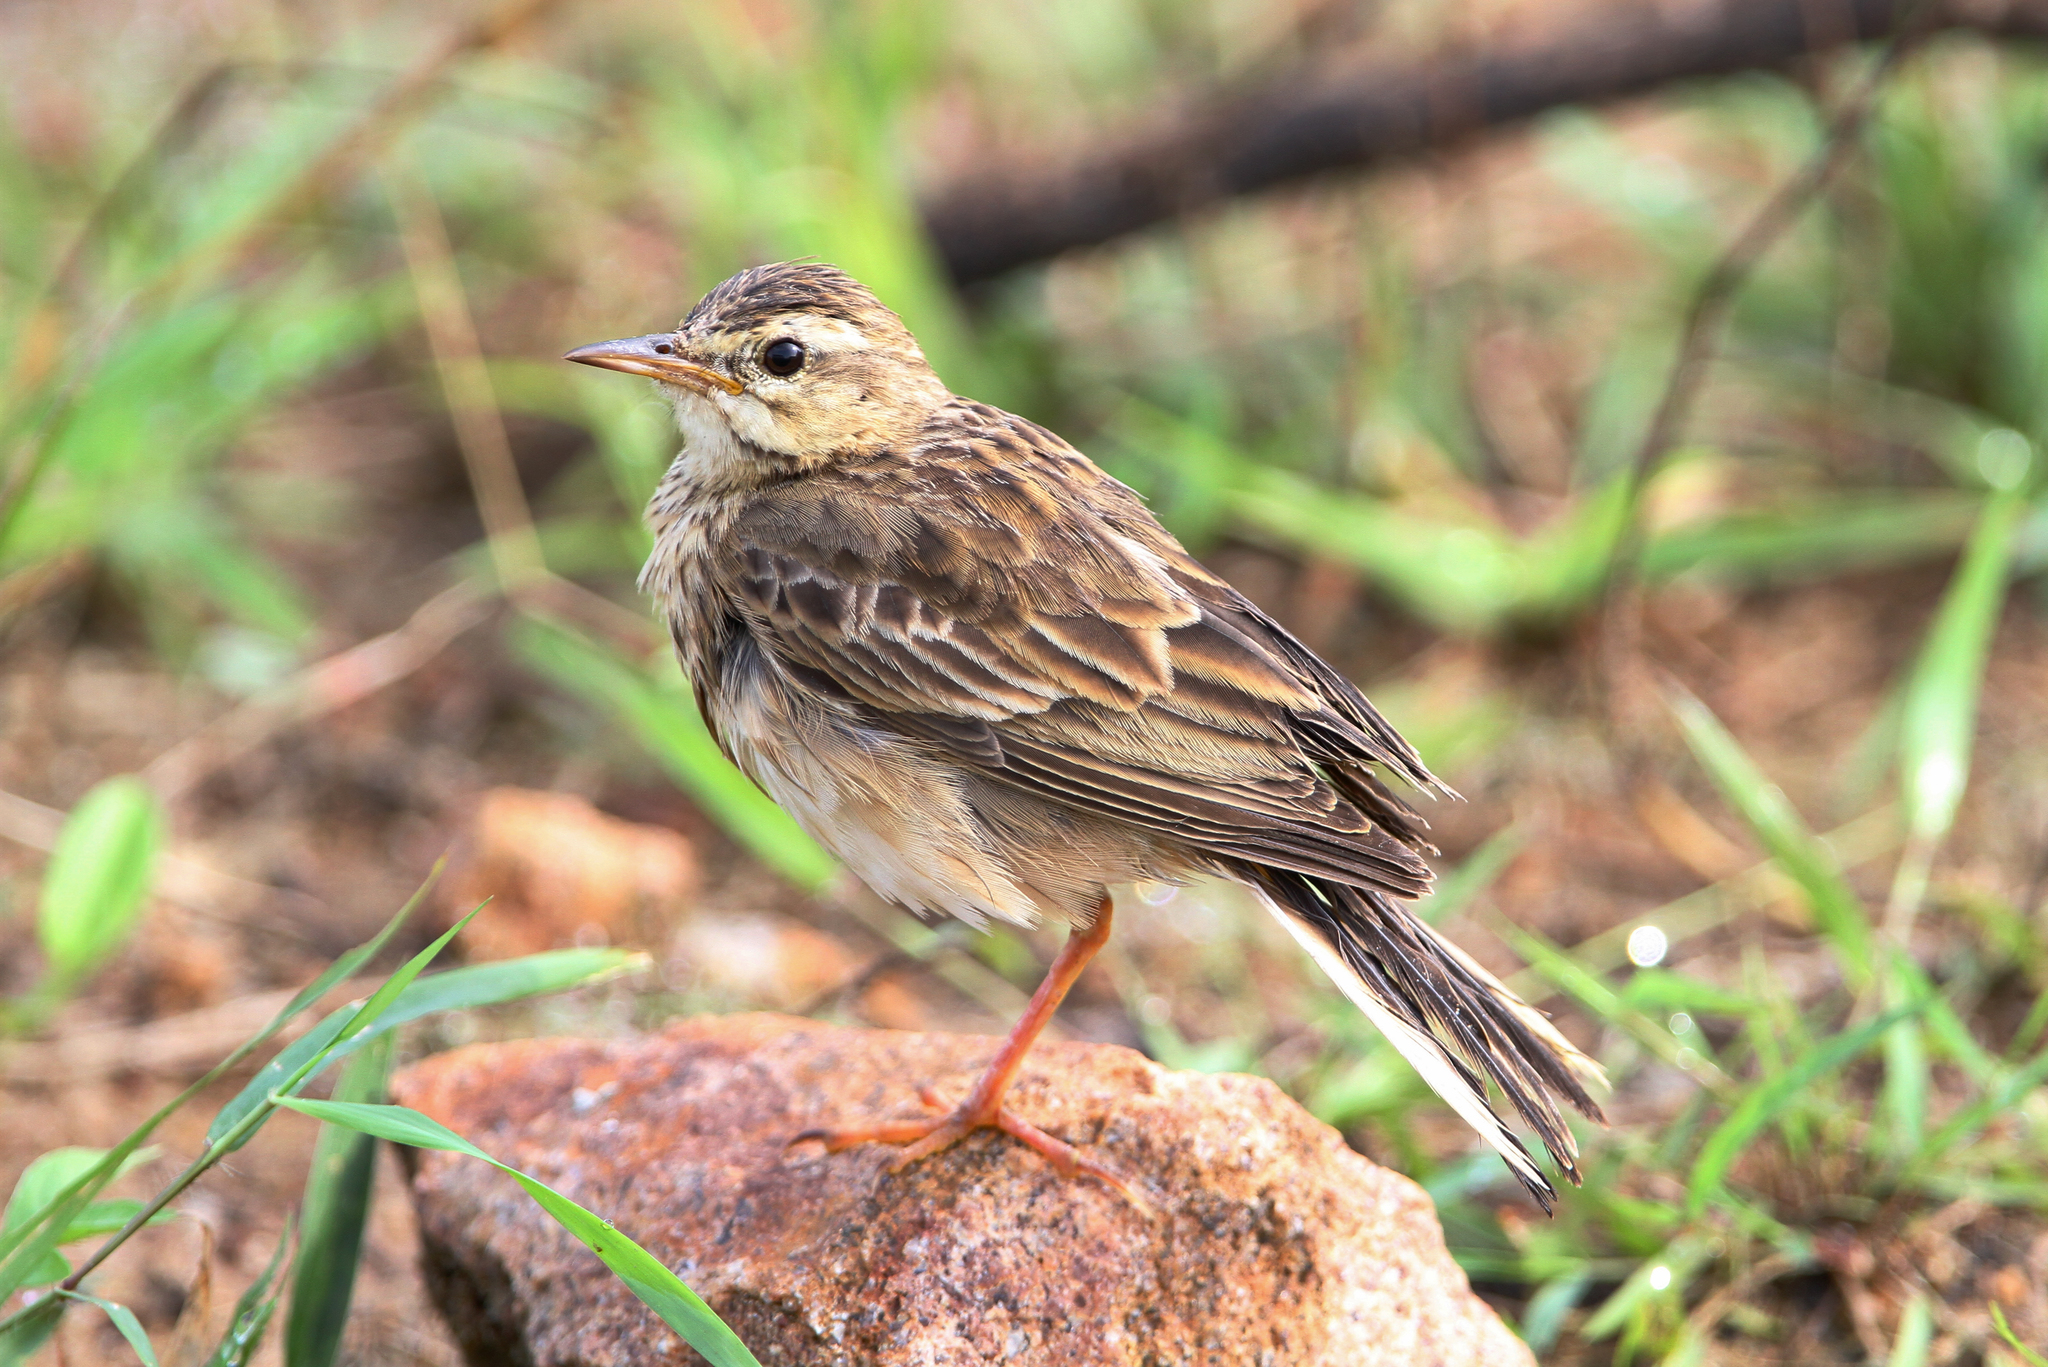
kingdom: Animalia
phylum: Chordata
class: Aves
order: Passeriformes
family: Motacillidae
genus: Anthus
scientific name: Anthus rufulus
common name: Paddyfield pipit
